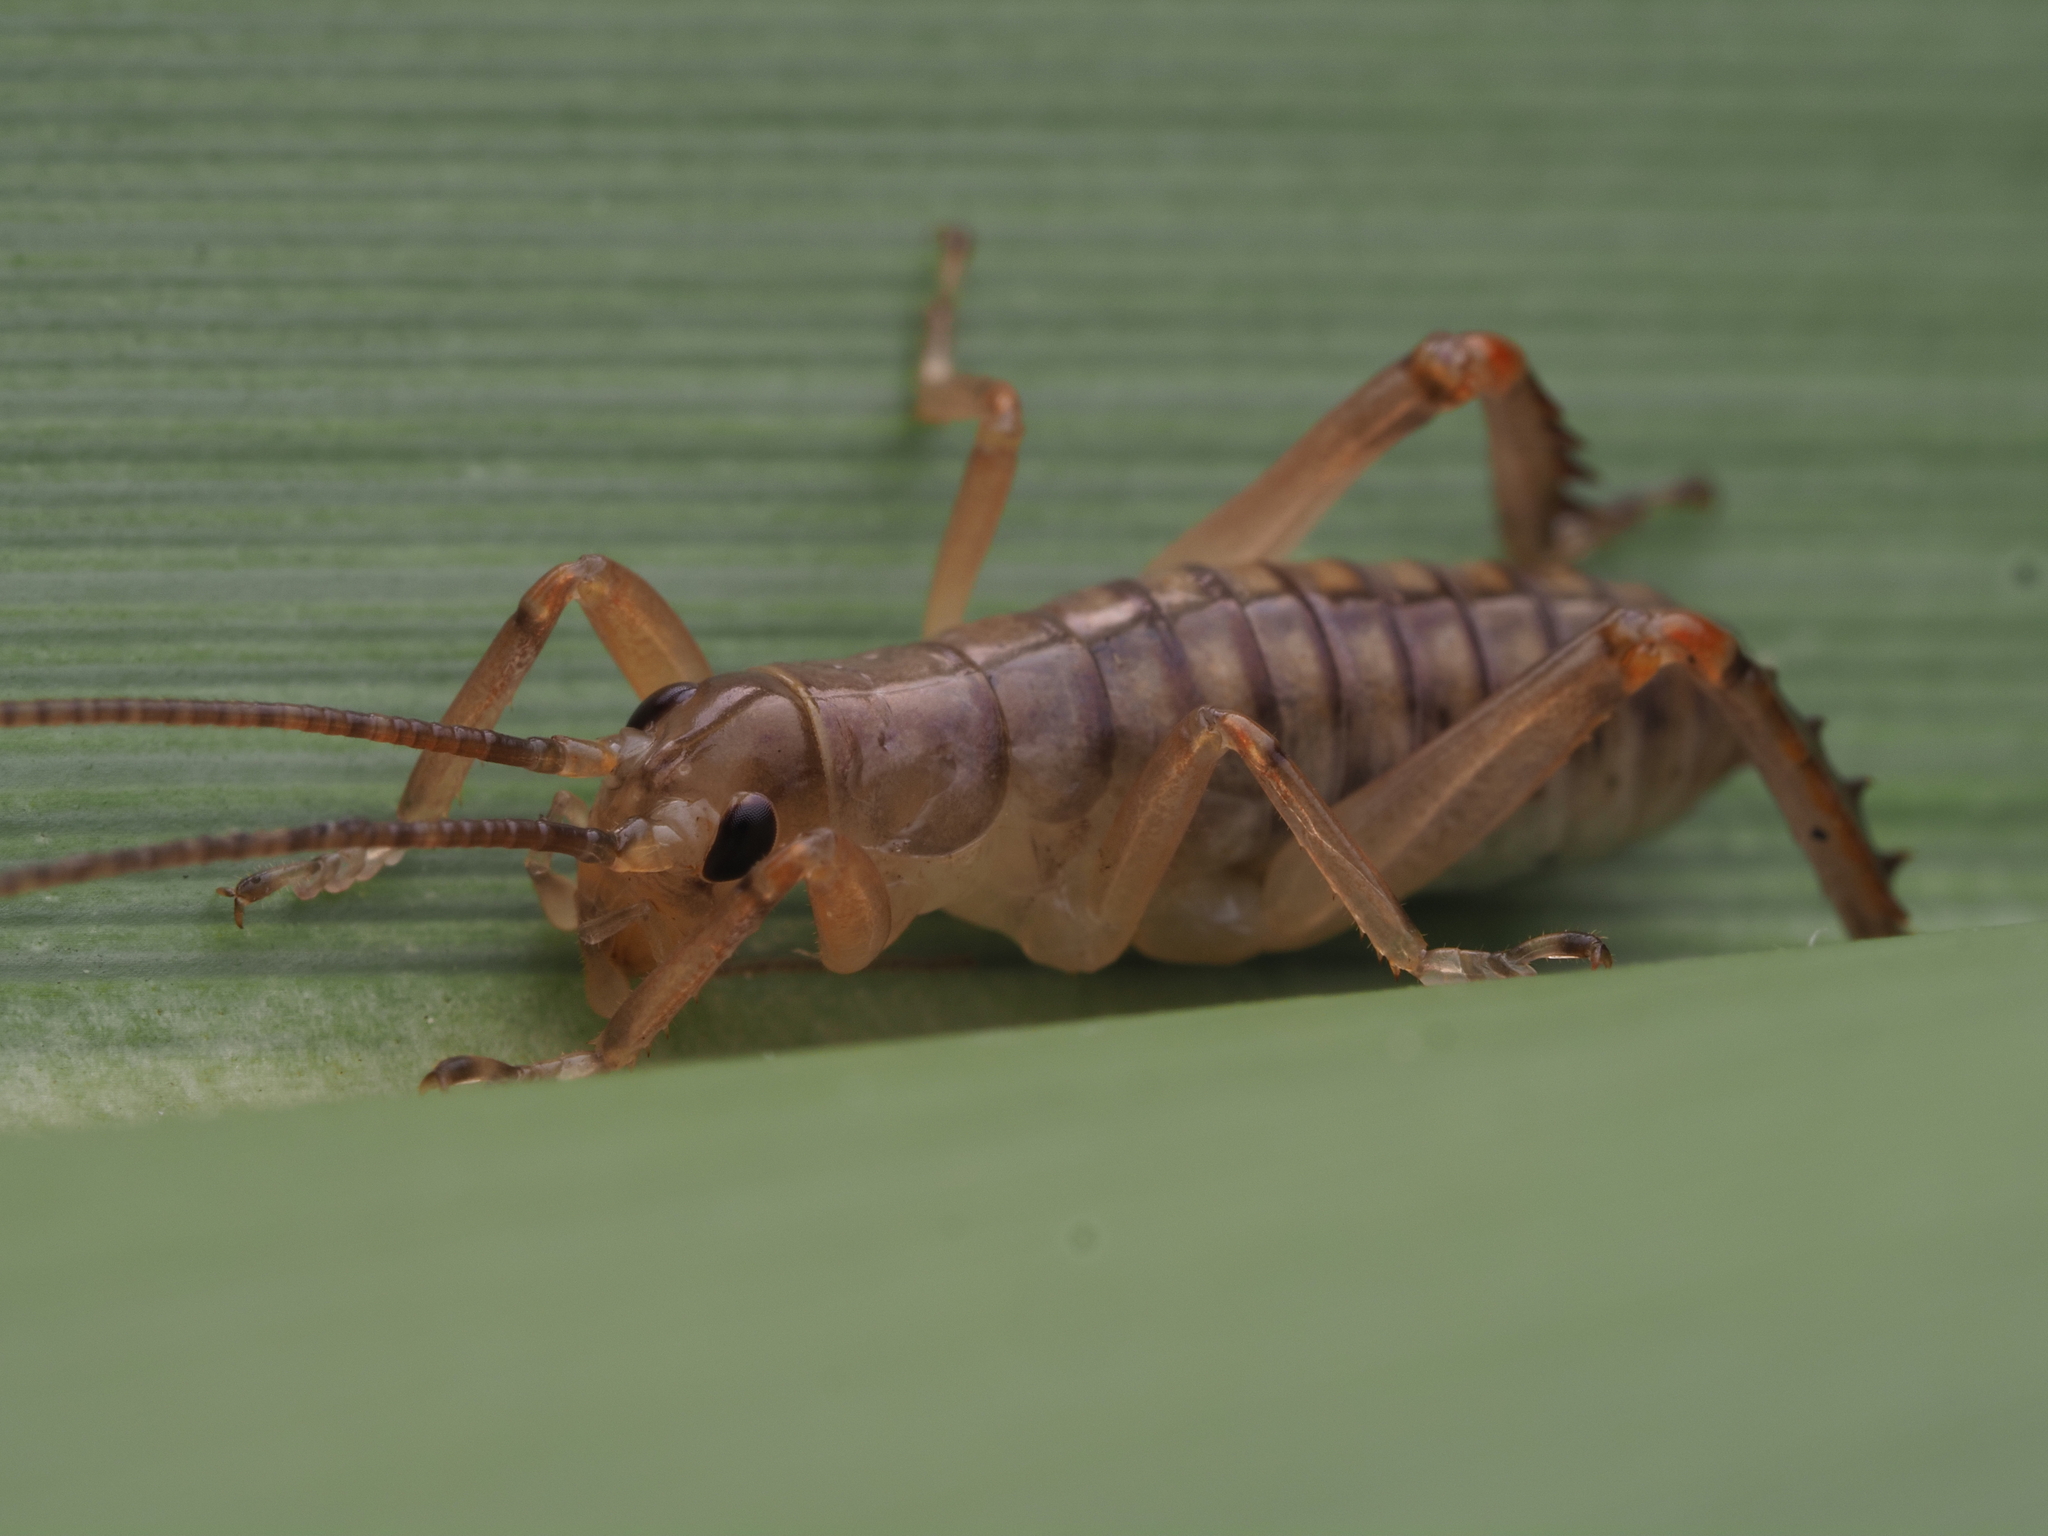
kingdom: Animalia
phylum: Arthropoda
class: Insecta
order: Orthoptera
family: Anostostomatidae
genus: Hemideina
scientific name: Hemideina crassidens
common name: Wellington tree weta
